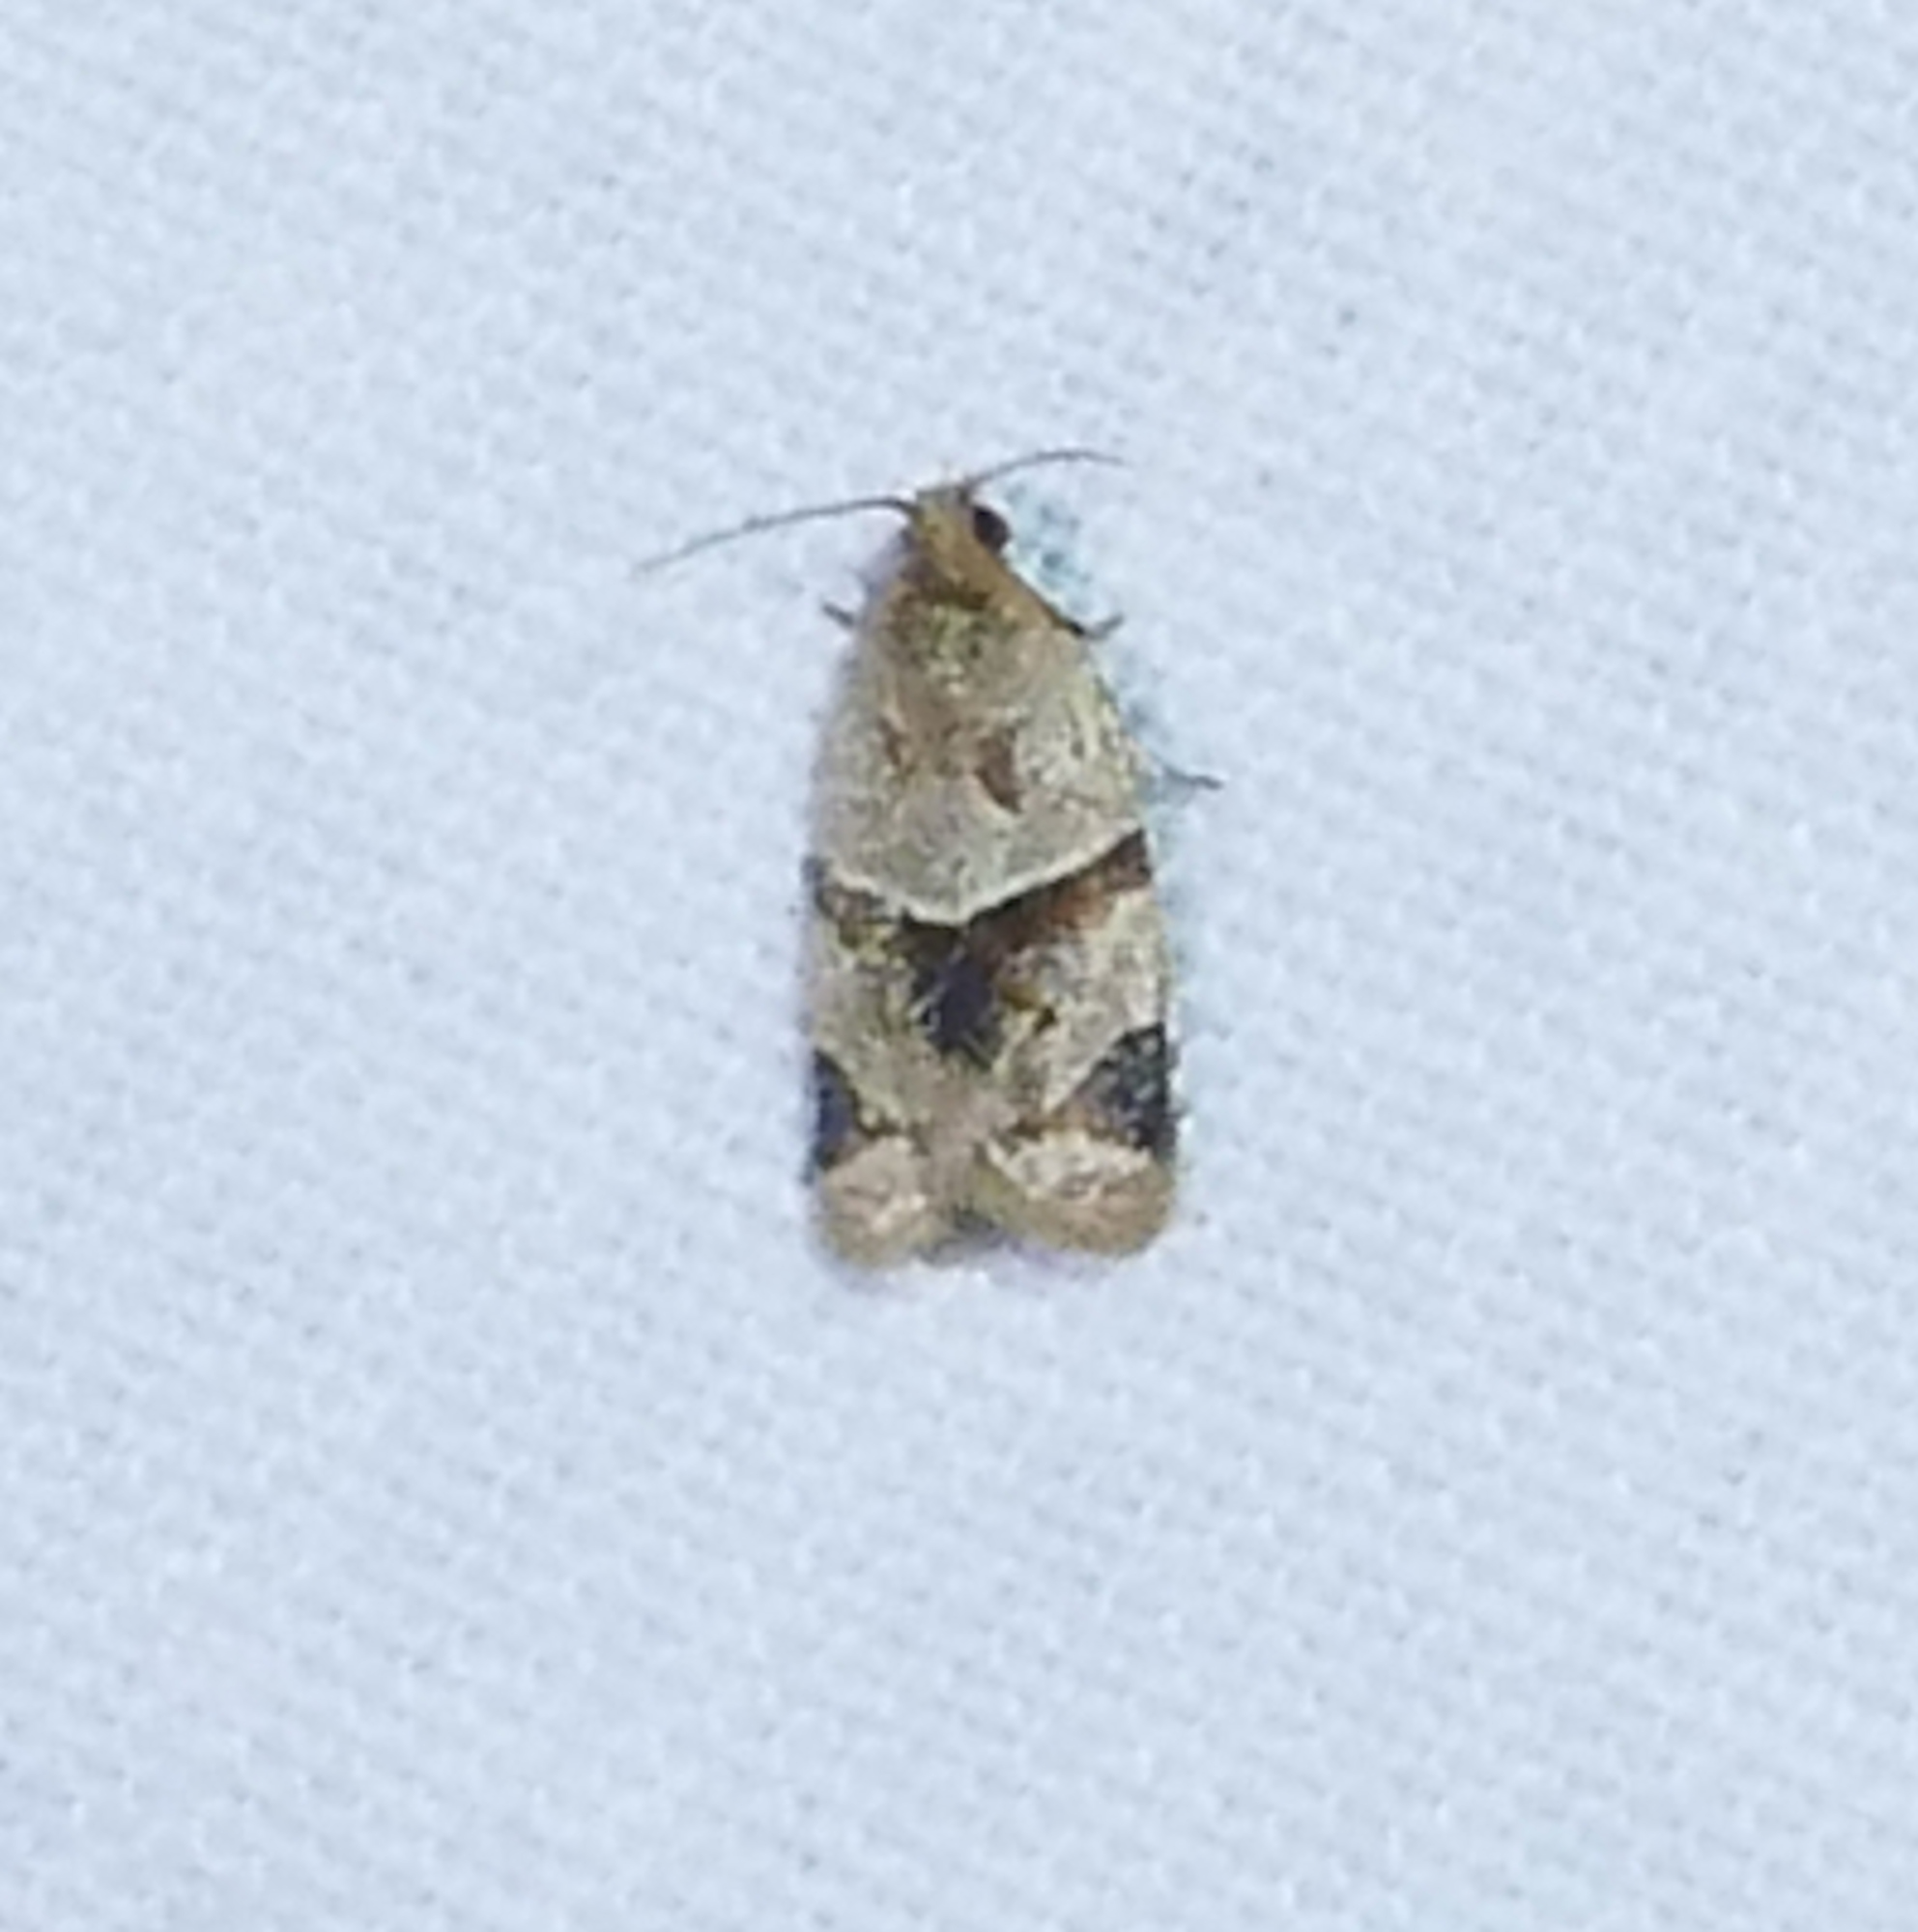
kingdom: Animalia
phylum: Arthropoda
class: Insecta
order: Lepidoptera
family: Tortricidae
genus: Clepsis
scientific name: Clepsis peritana
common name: Garden tortrix
